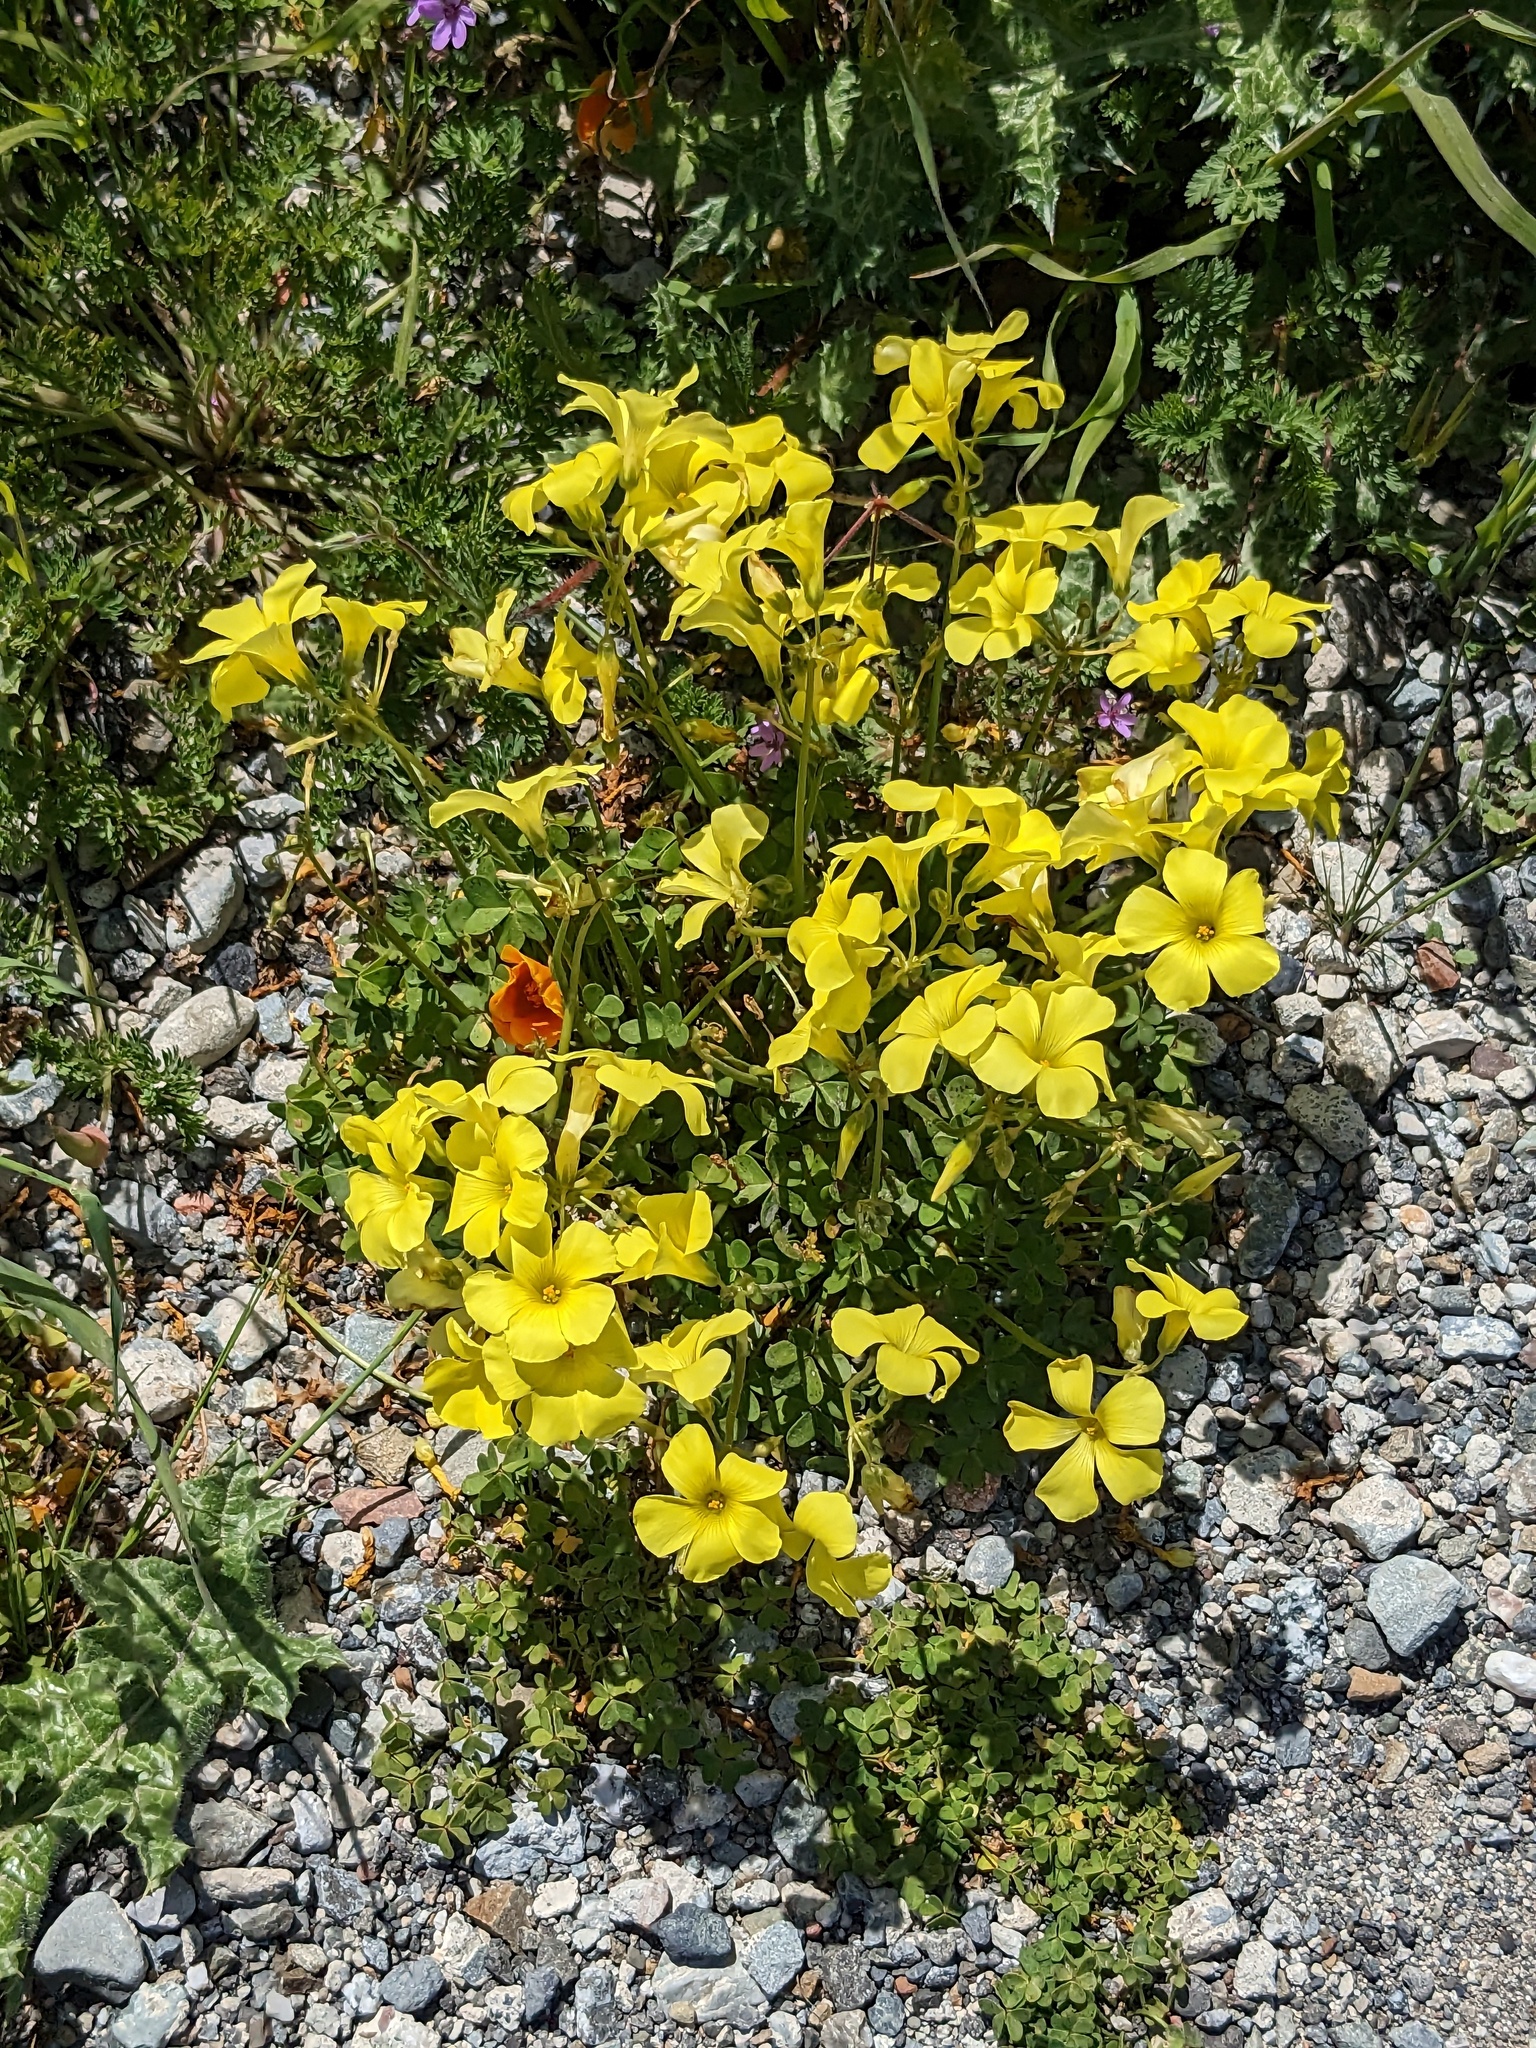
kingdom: Plantae
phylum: Tracheophyta
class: Magnoliopsida
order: Oxalidales
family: Oxalidaceae
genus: Oxalis
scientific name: Oxalis pes-caprae
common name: Bermuda-buttercup
